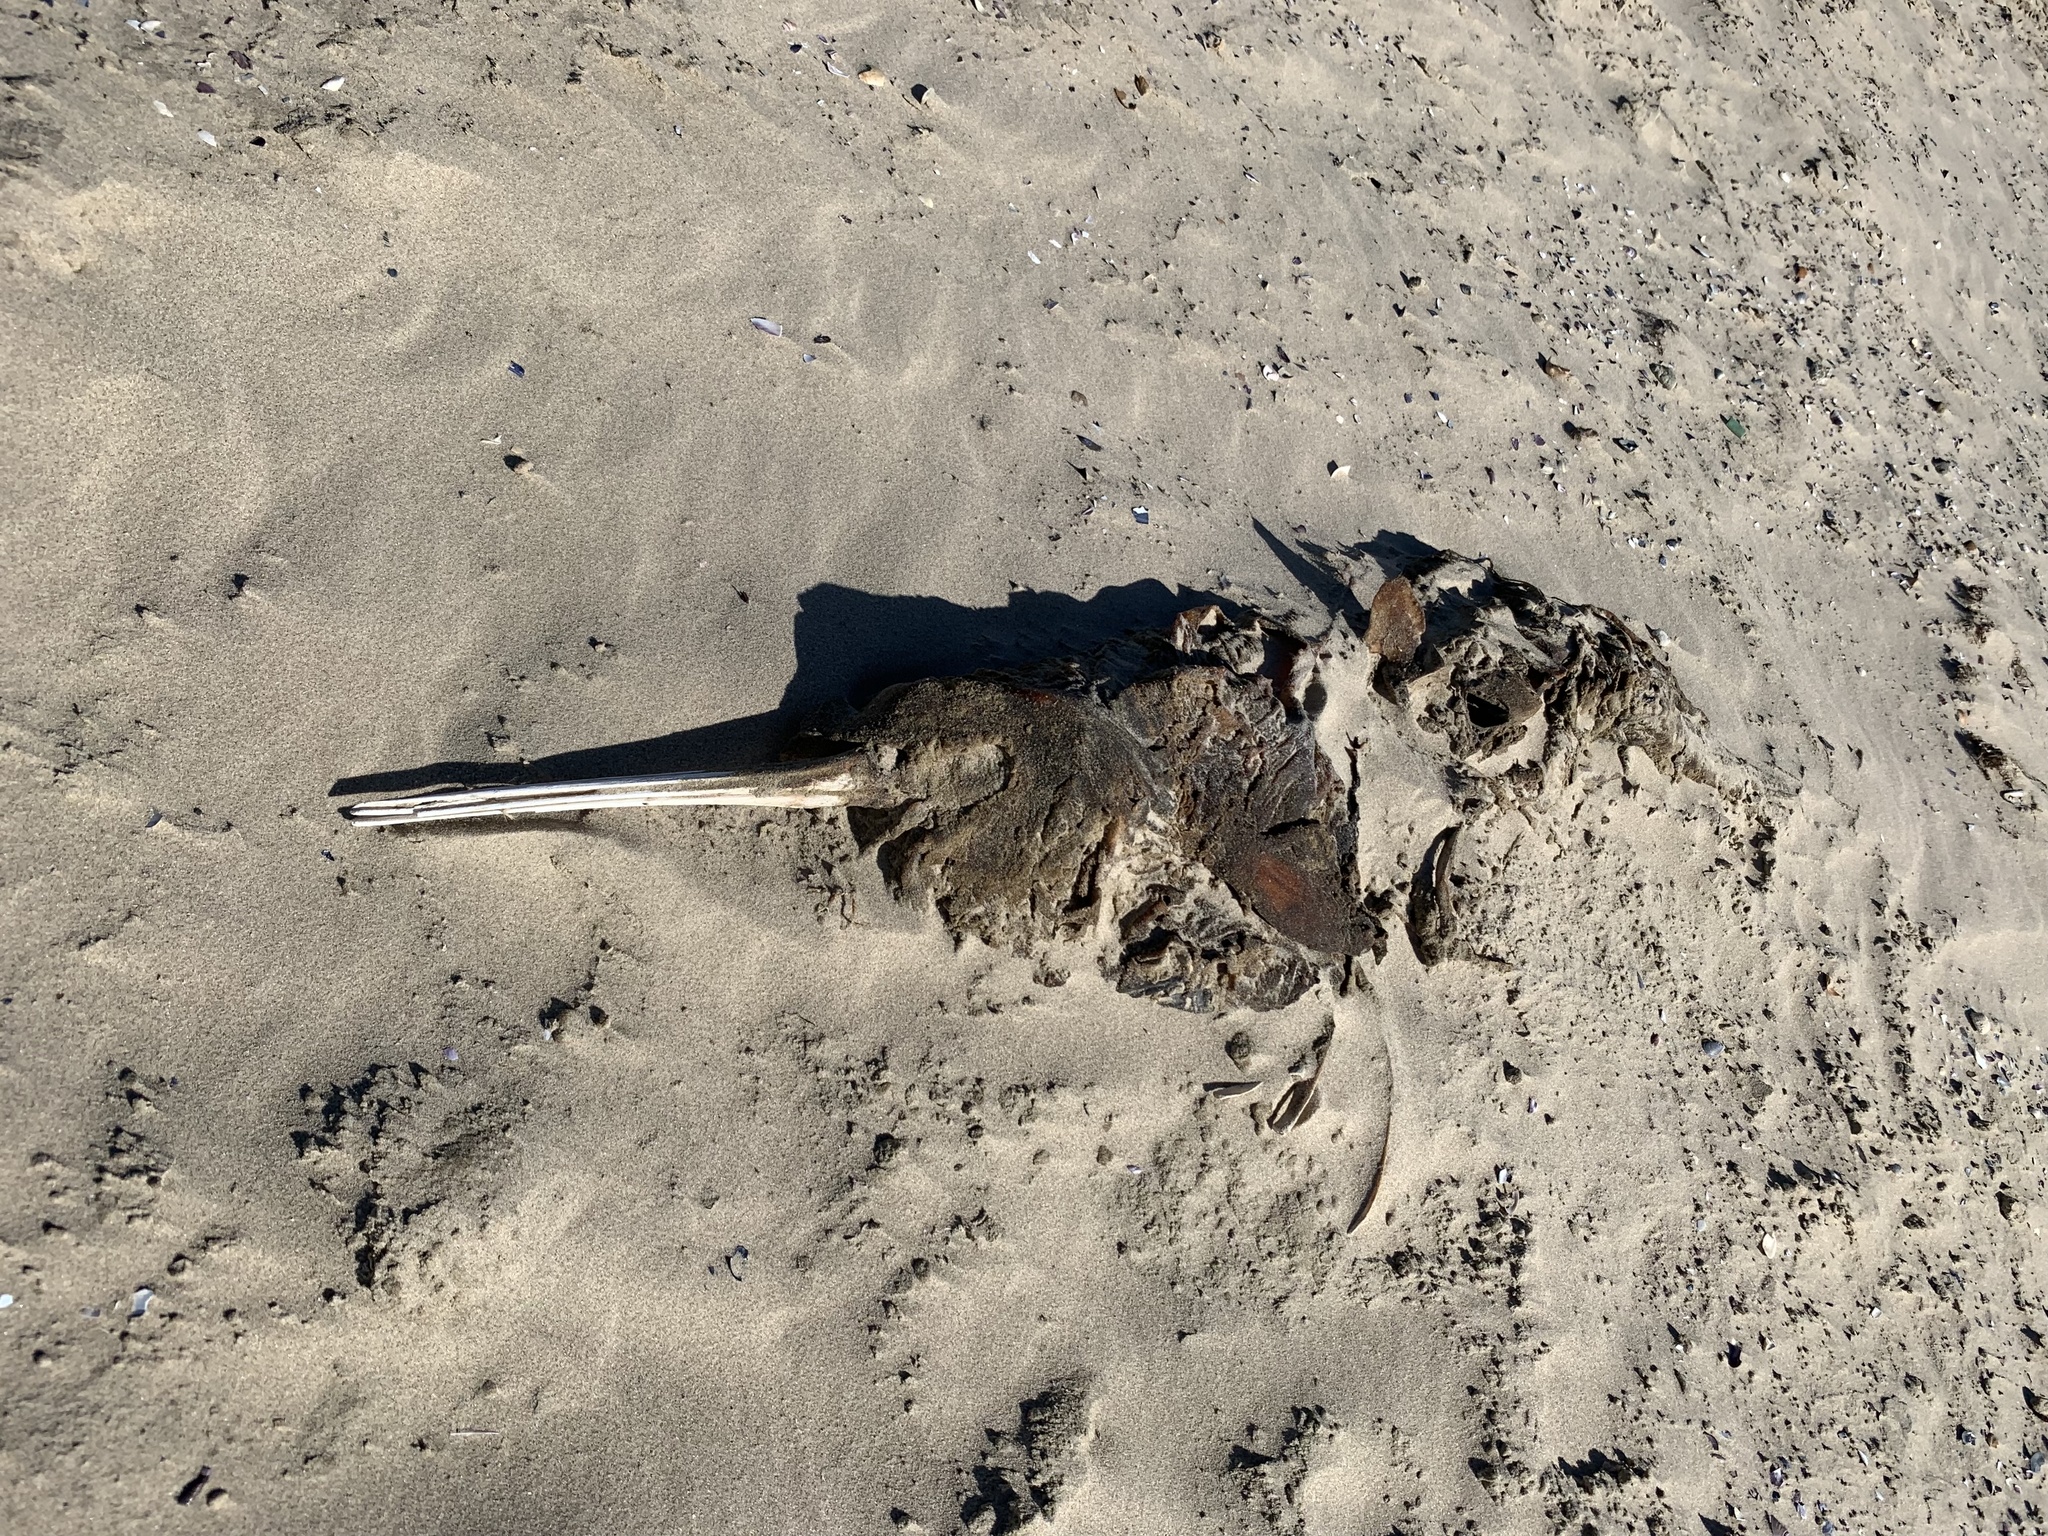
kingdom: Animalia
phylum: Chordata
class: Mammalia
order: Cetacea
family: Pontoporiidae
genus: Pontoporia
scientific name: Pontoporia blainvillei
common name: Franciscana
